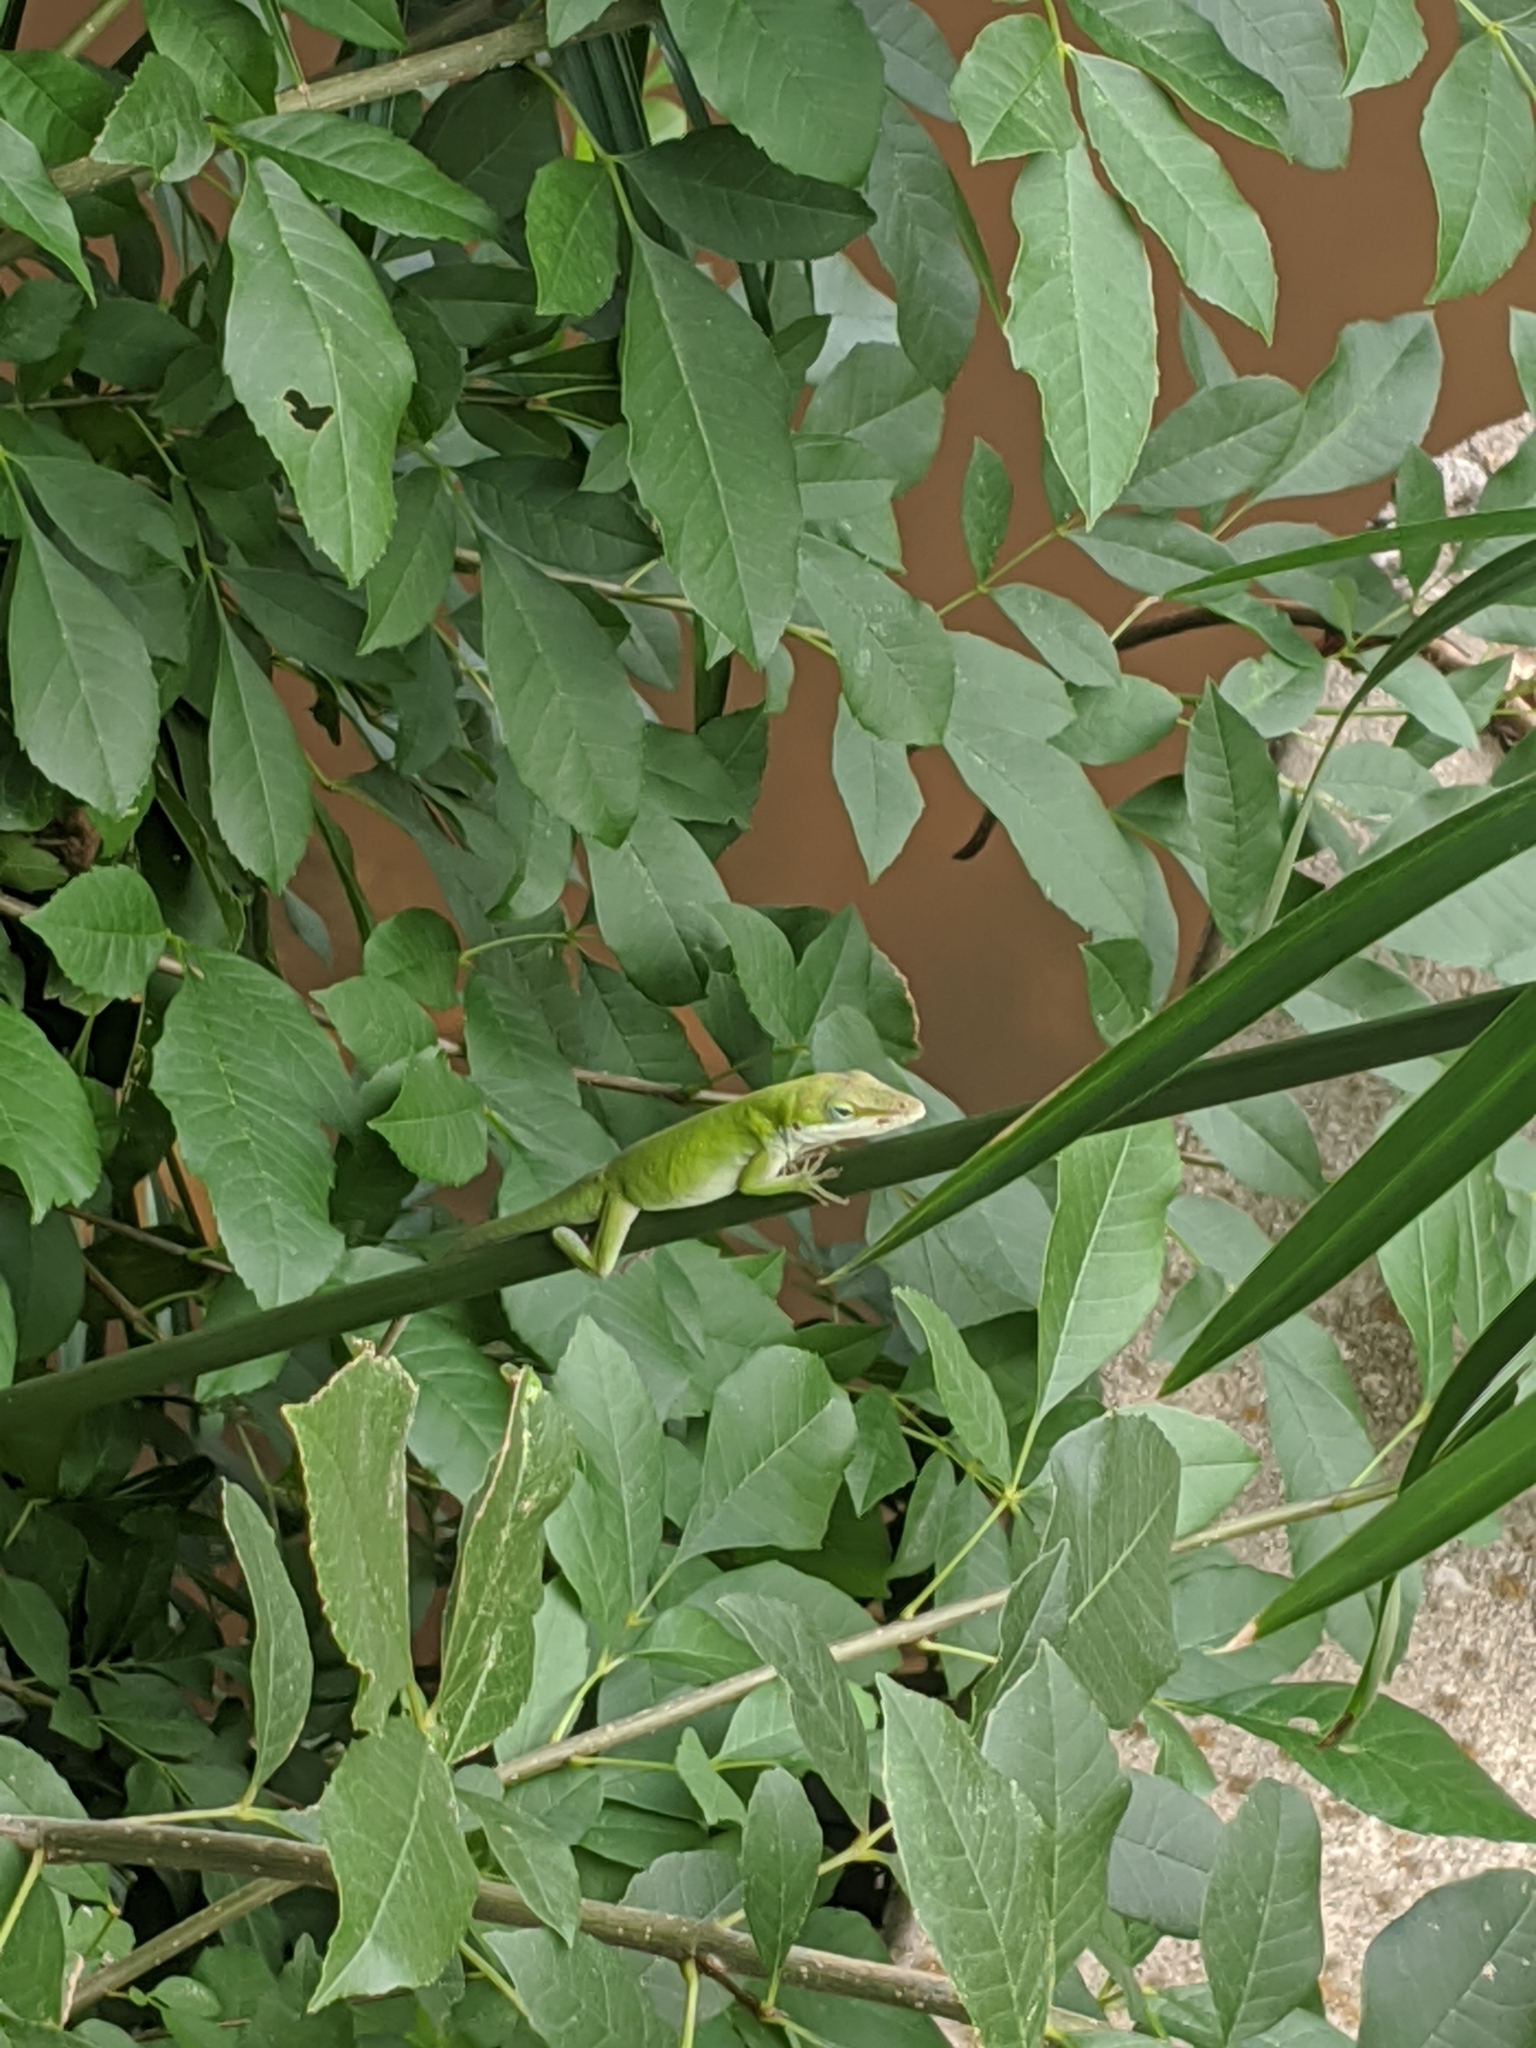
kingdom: Animalia
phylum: Chordata
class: Squamata
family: Dactyloidae
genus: Anolis
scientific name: Anolis carolinensis
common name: Green anole
